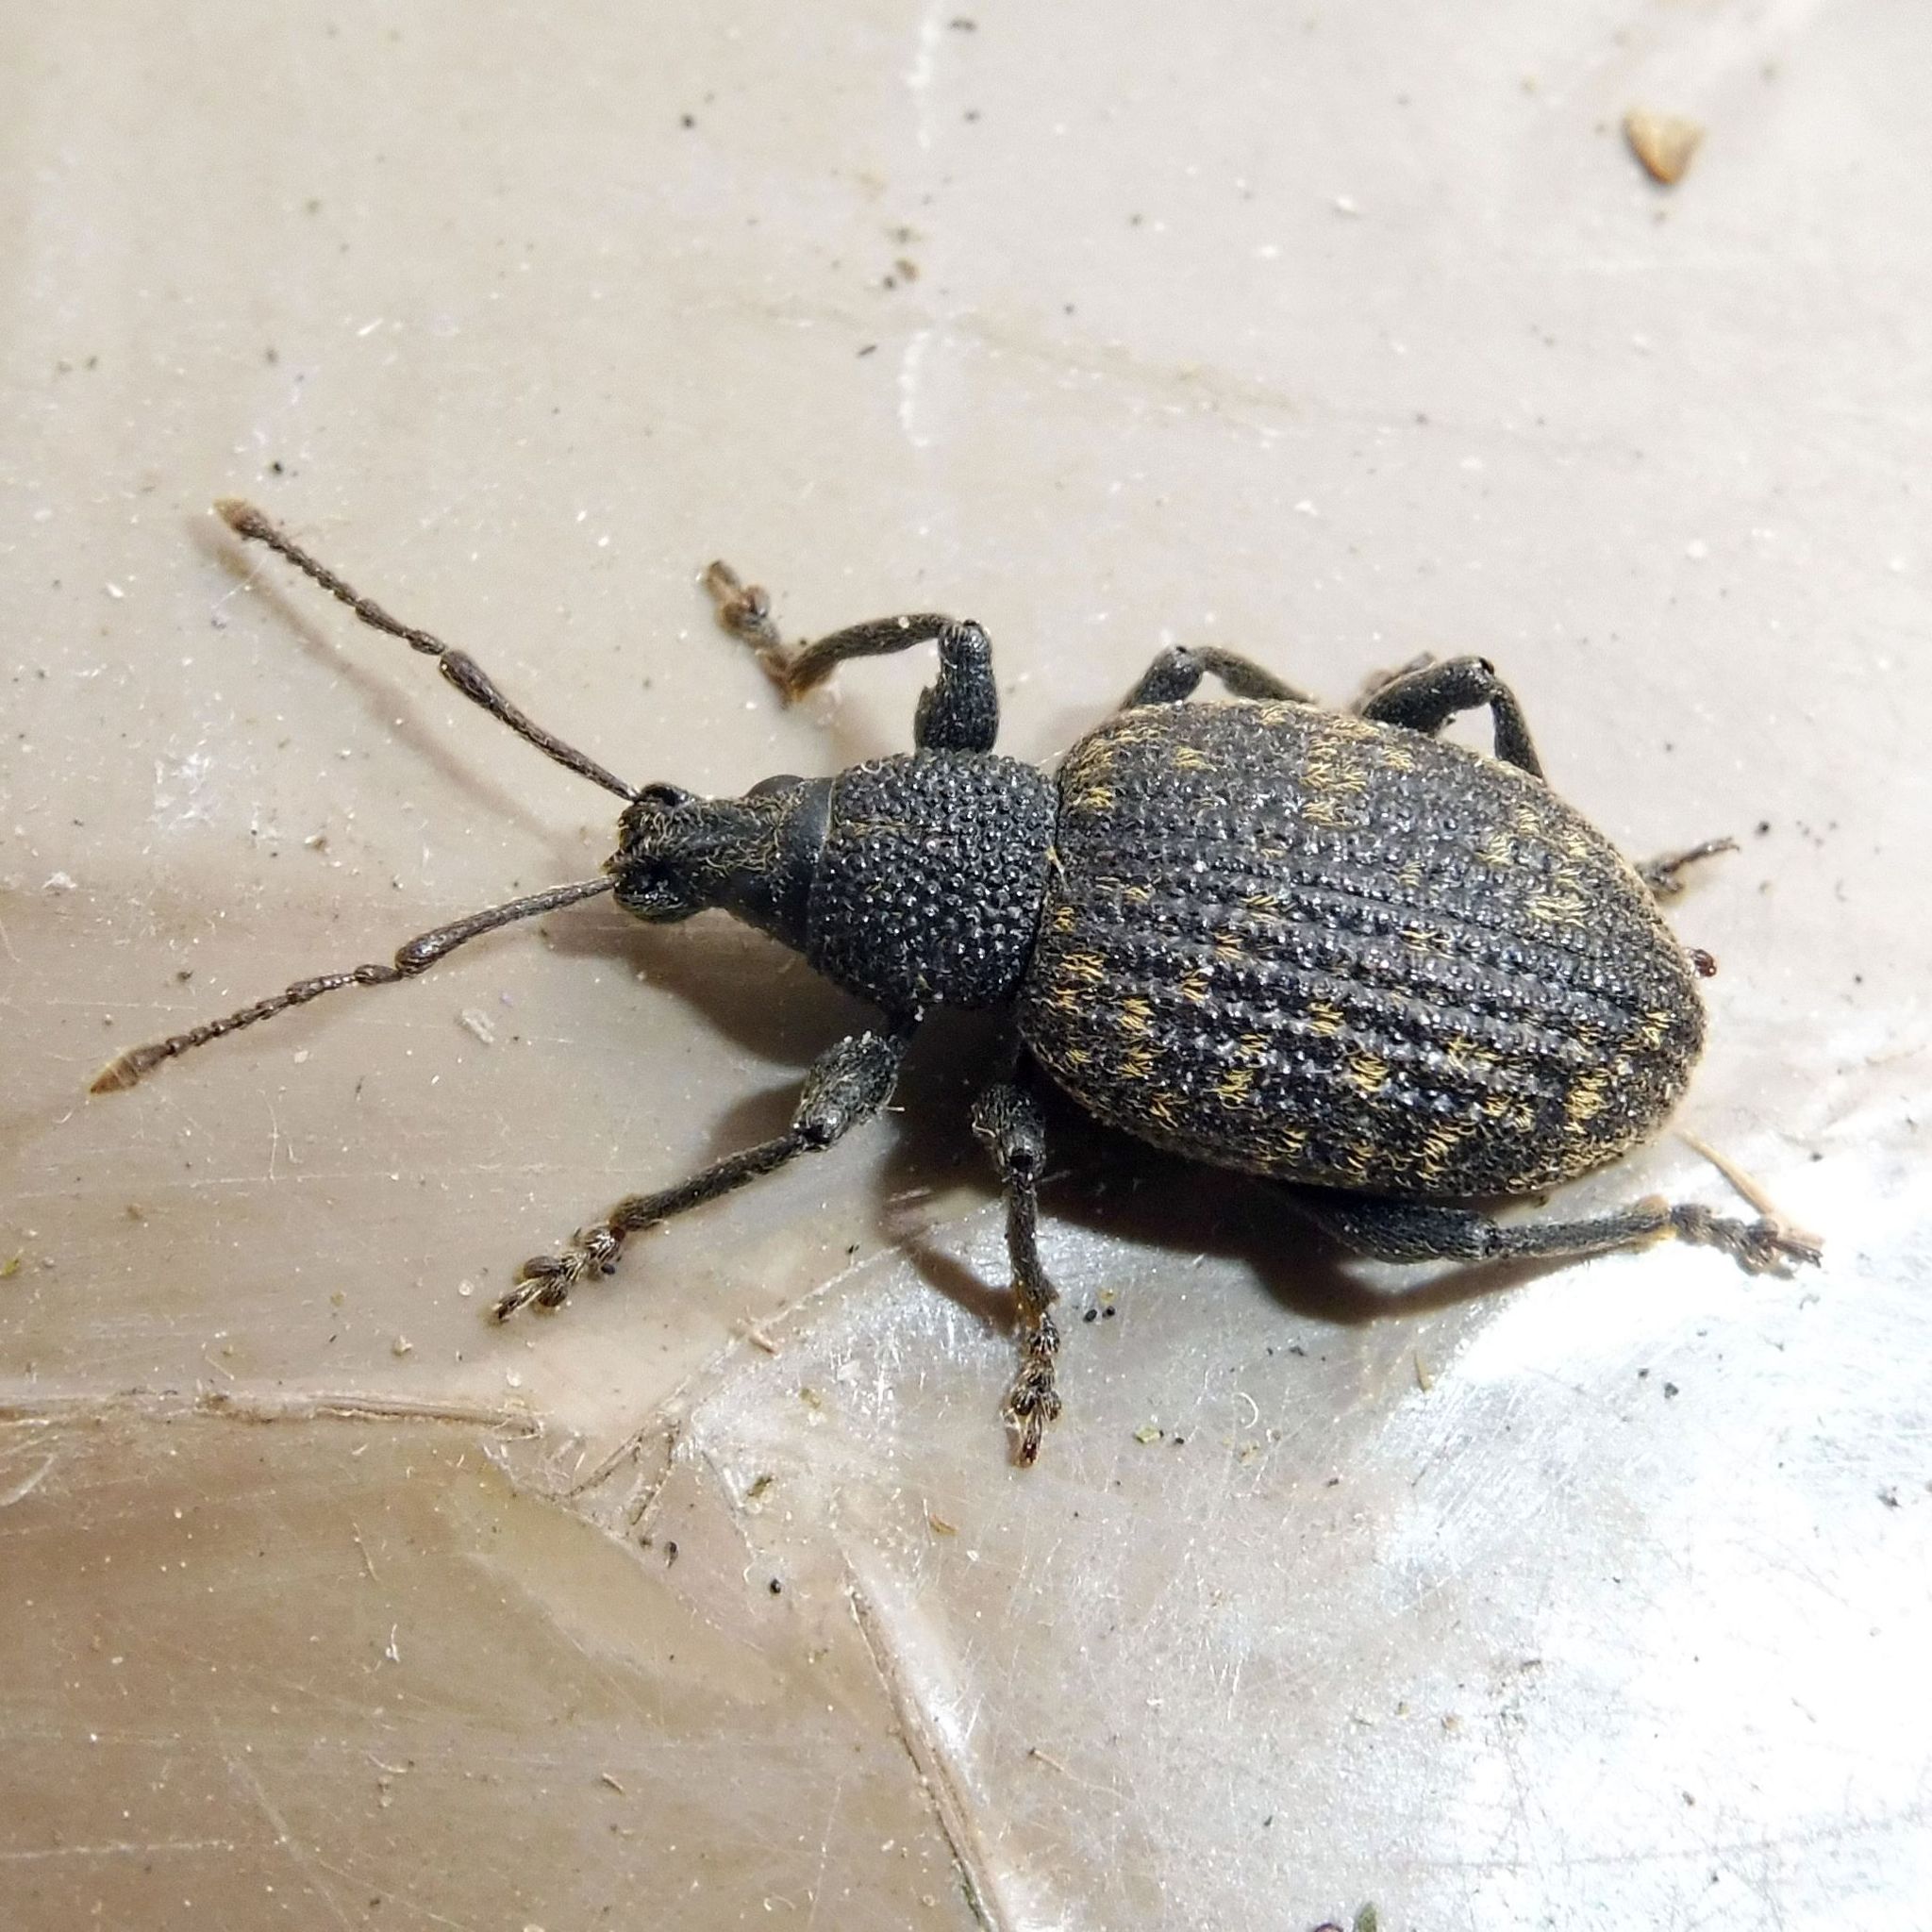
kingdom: Animalia
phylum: Arthropoda
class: Insecta
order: Coleoptera
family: Curculionidae
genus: Otiorhynchus
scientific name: Otiorhynchus sulcatus
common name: Black vine weevil
